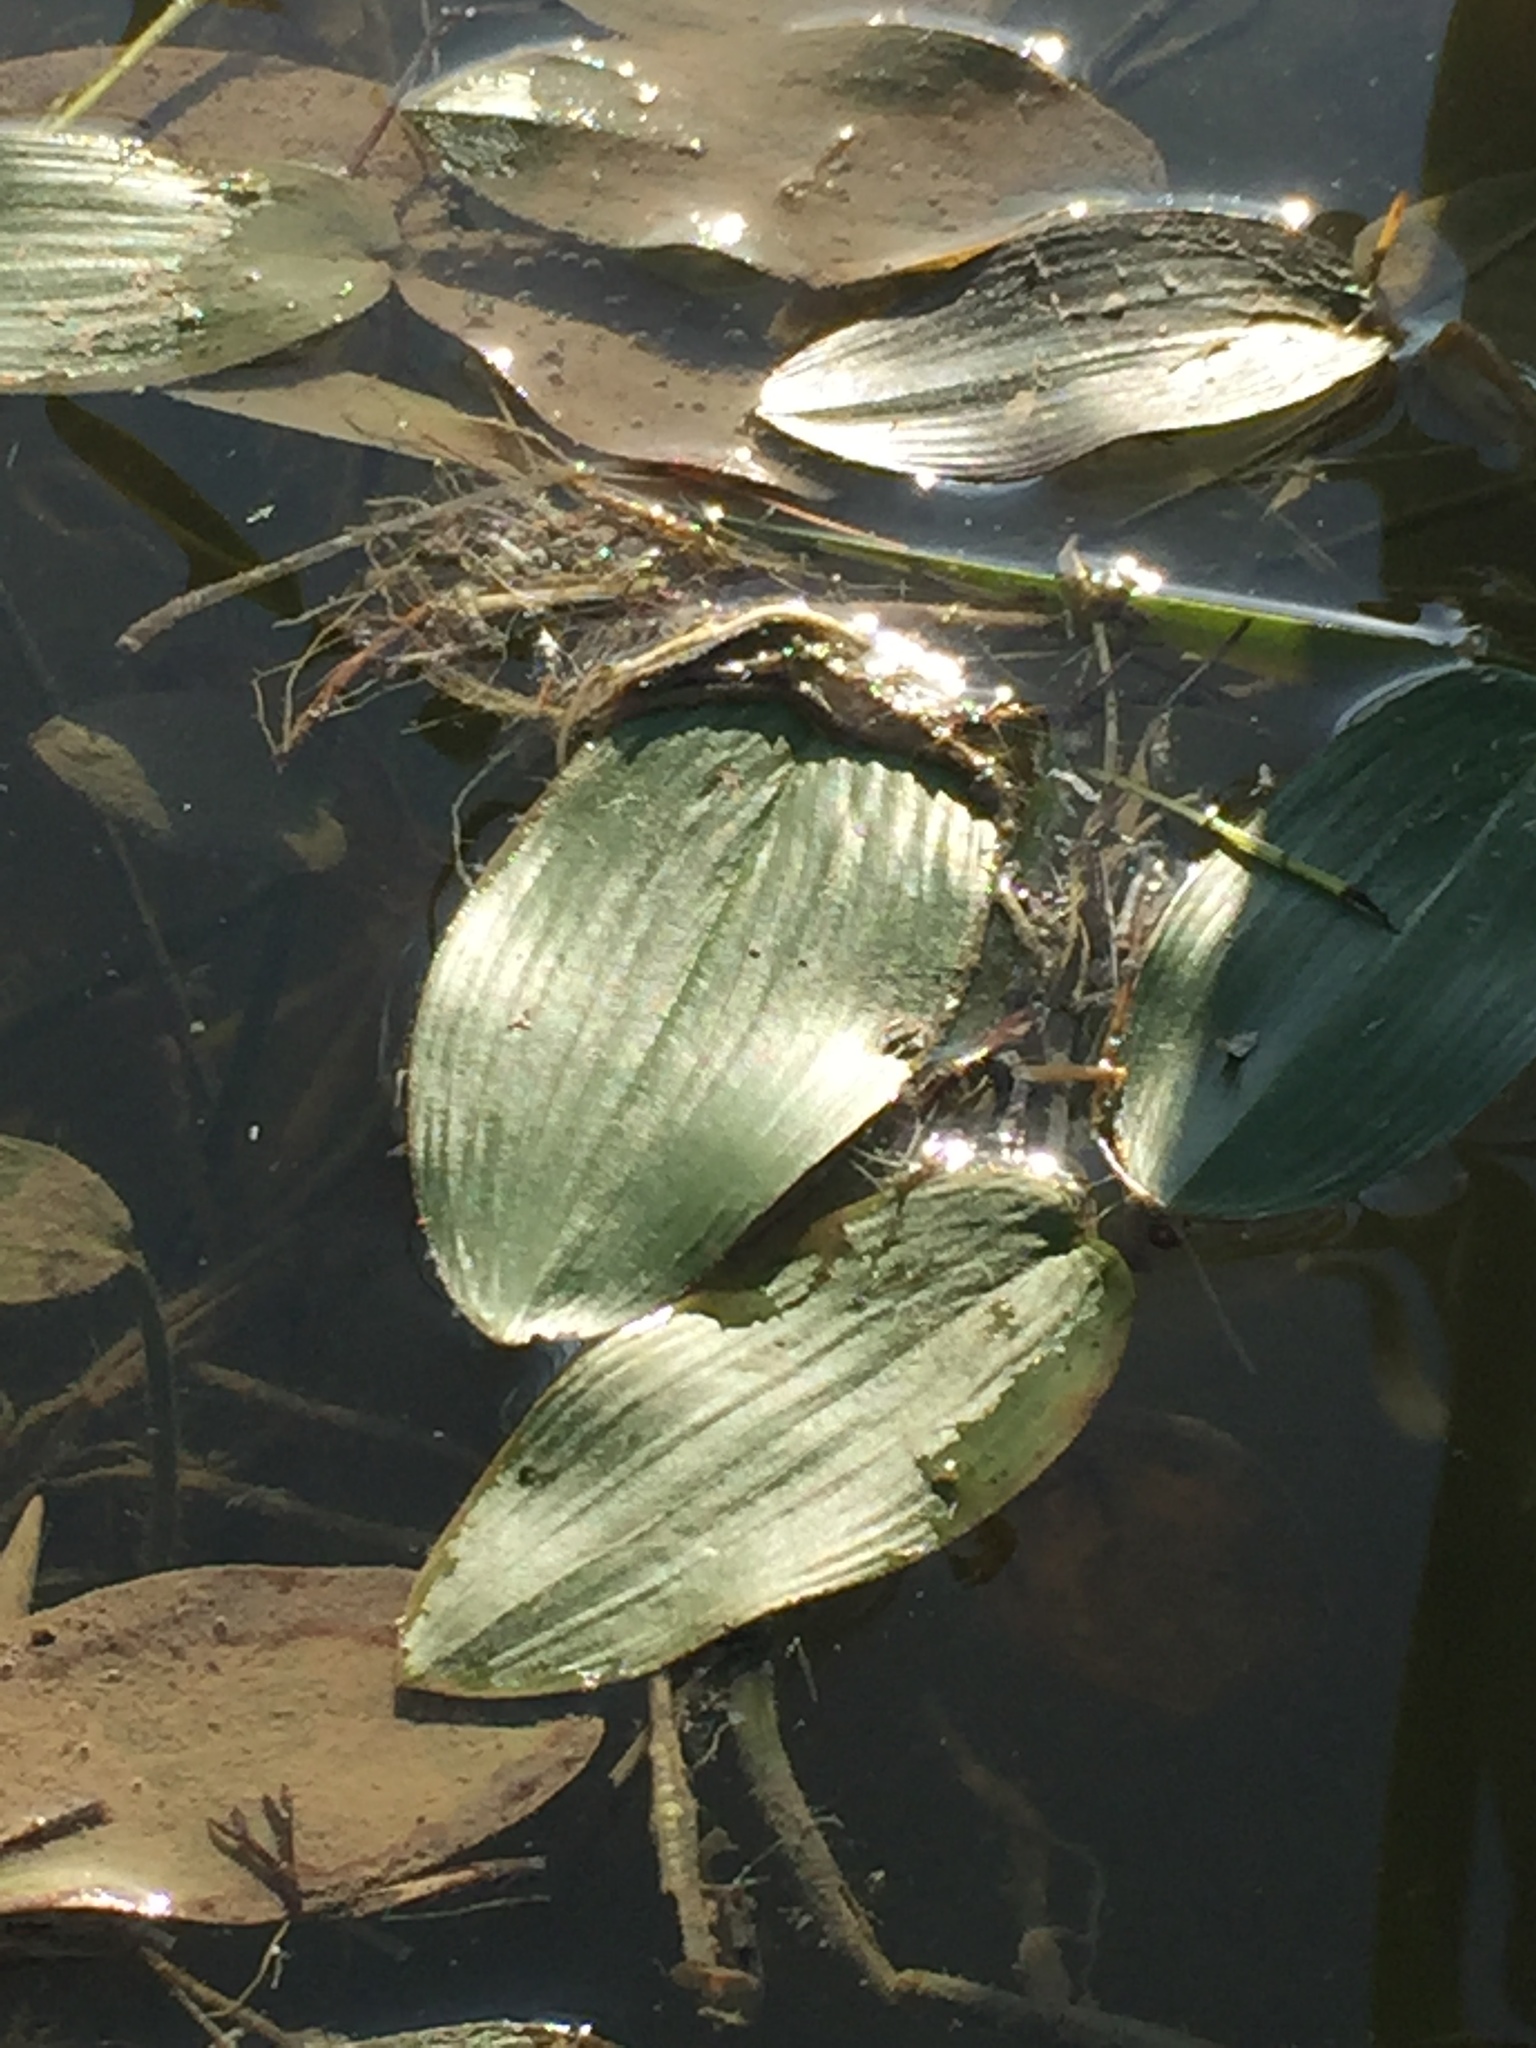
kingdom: Plantae
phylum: Tracheophyta
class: Liliopsida
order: Alismatales
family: Potamogetonaceae
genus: Potamogeton
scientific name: Potamogeton natans
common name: Broad-leaved pondweed
